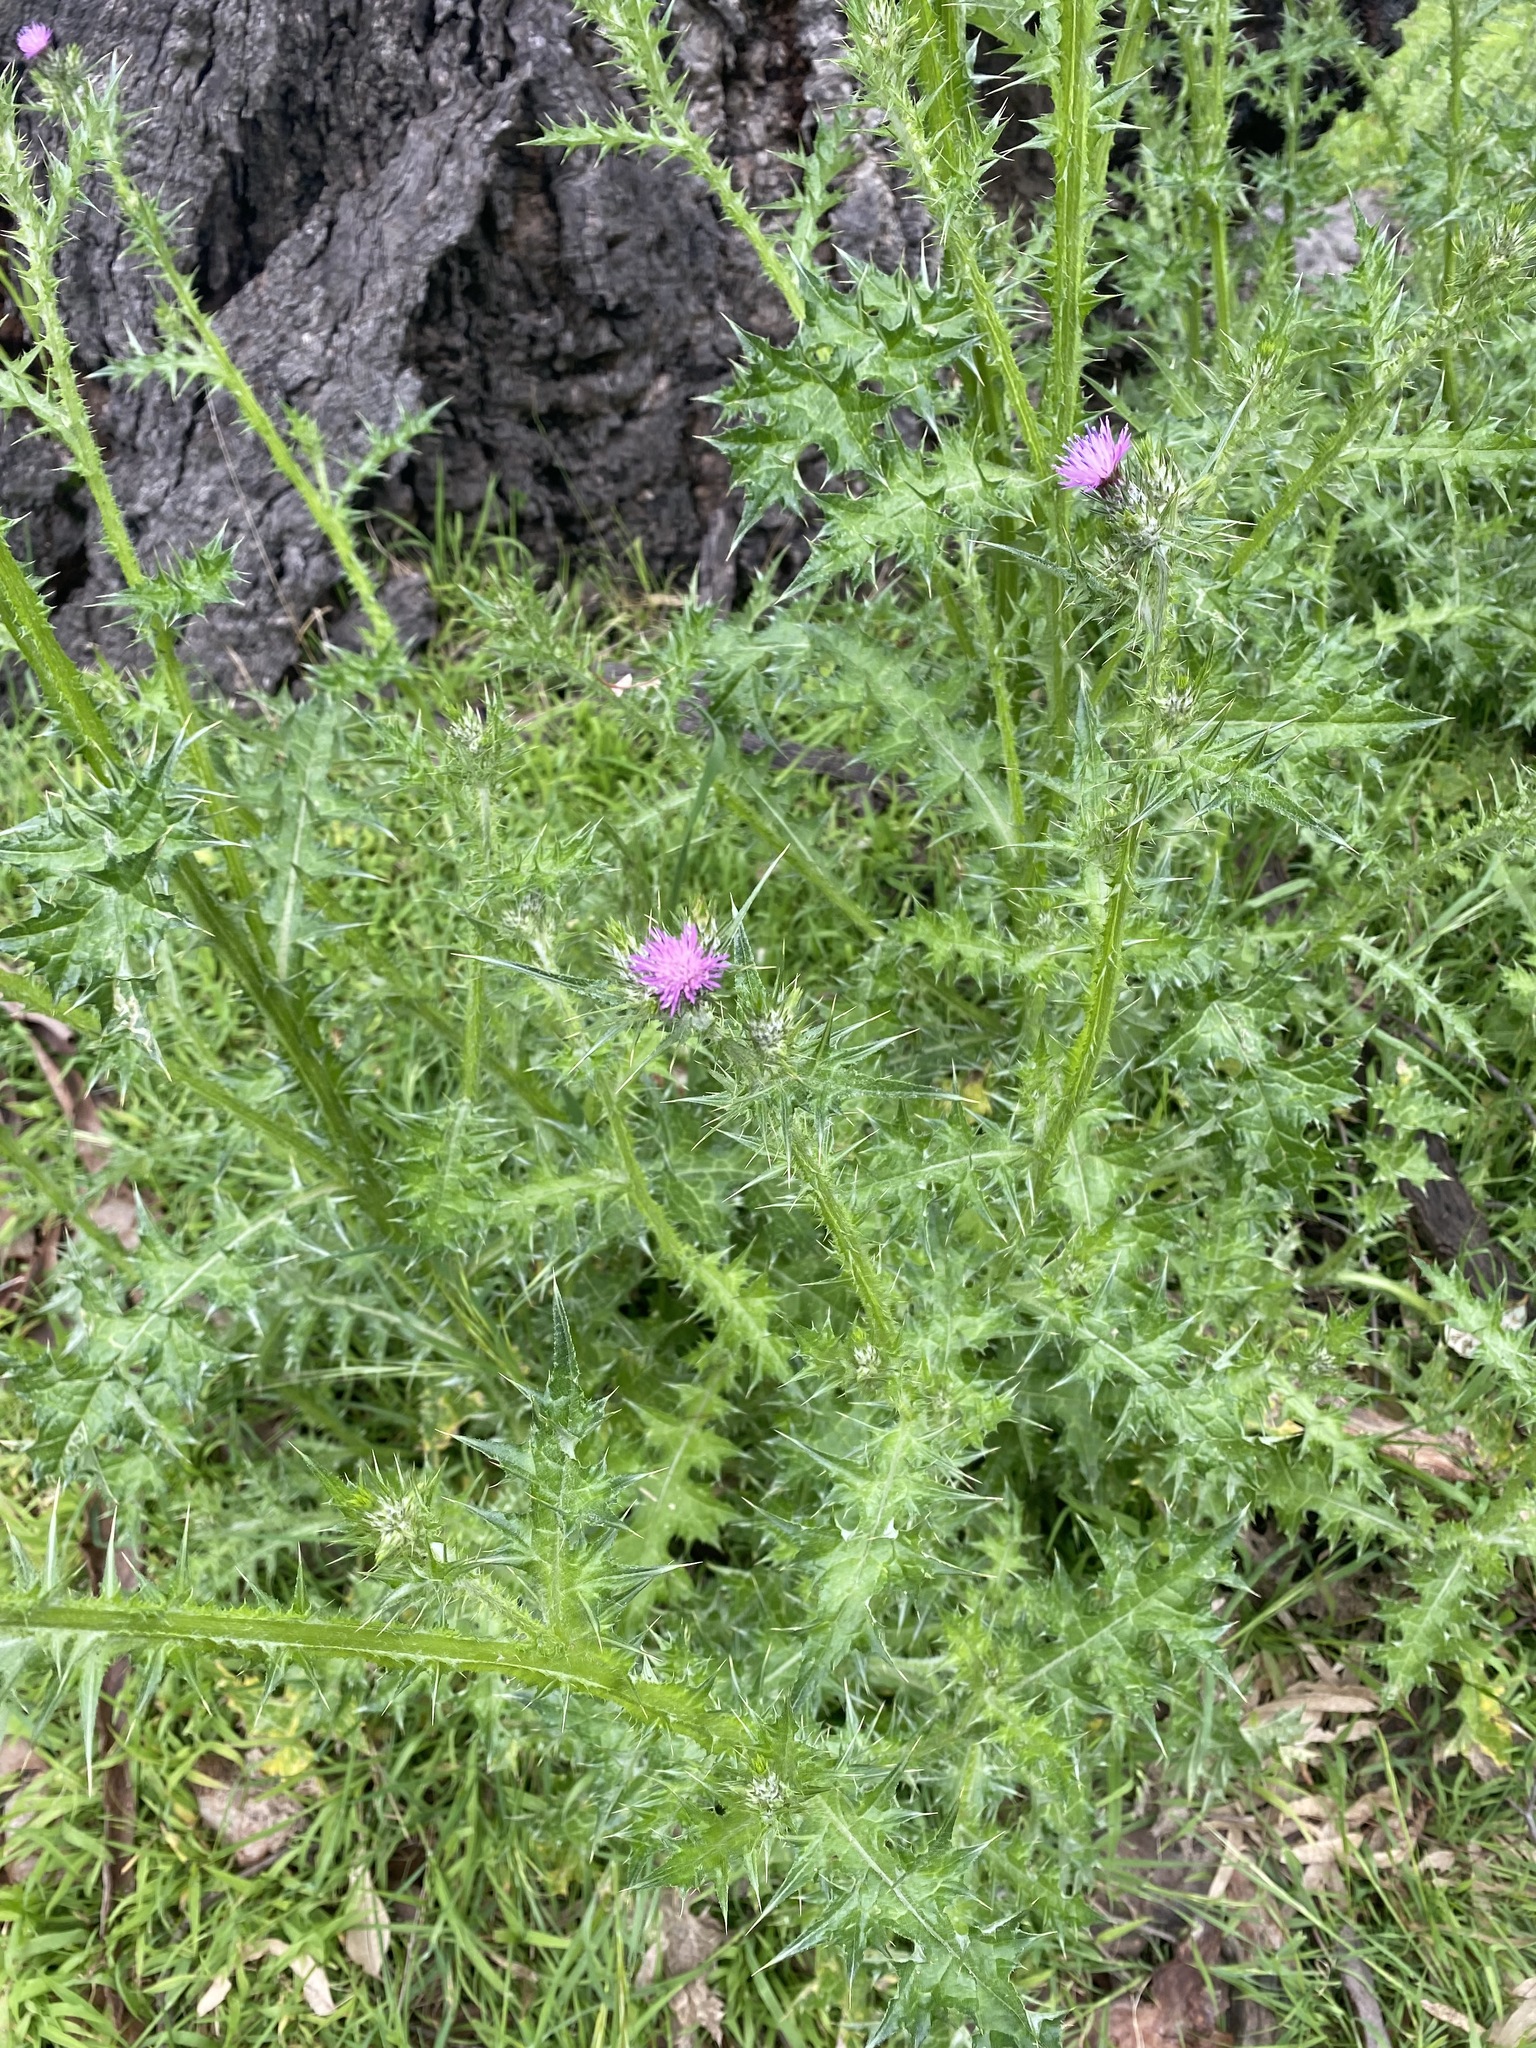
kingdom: Plantae
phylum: Tracheophyta
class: Magnoliopsida
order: Asterales
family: Asteraceae
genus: Carduus
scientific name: Carduus tenuiflorus
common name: Slender thistle
